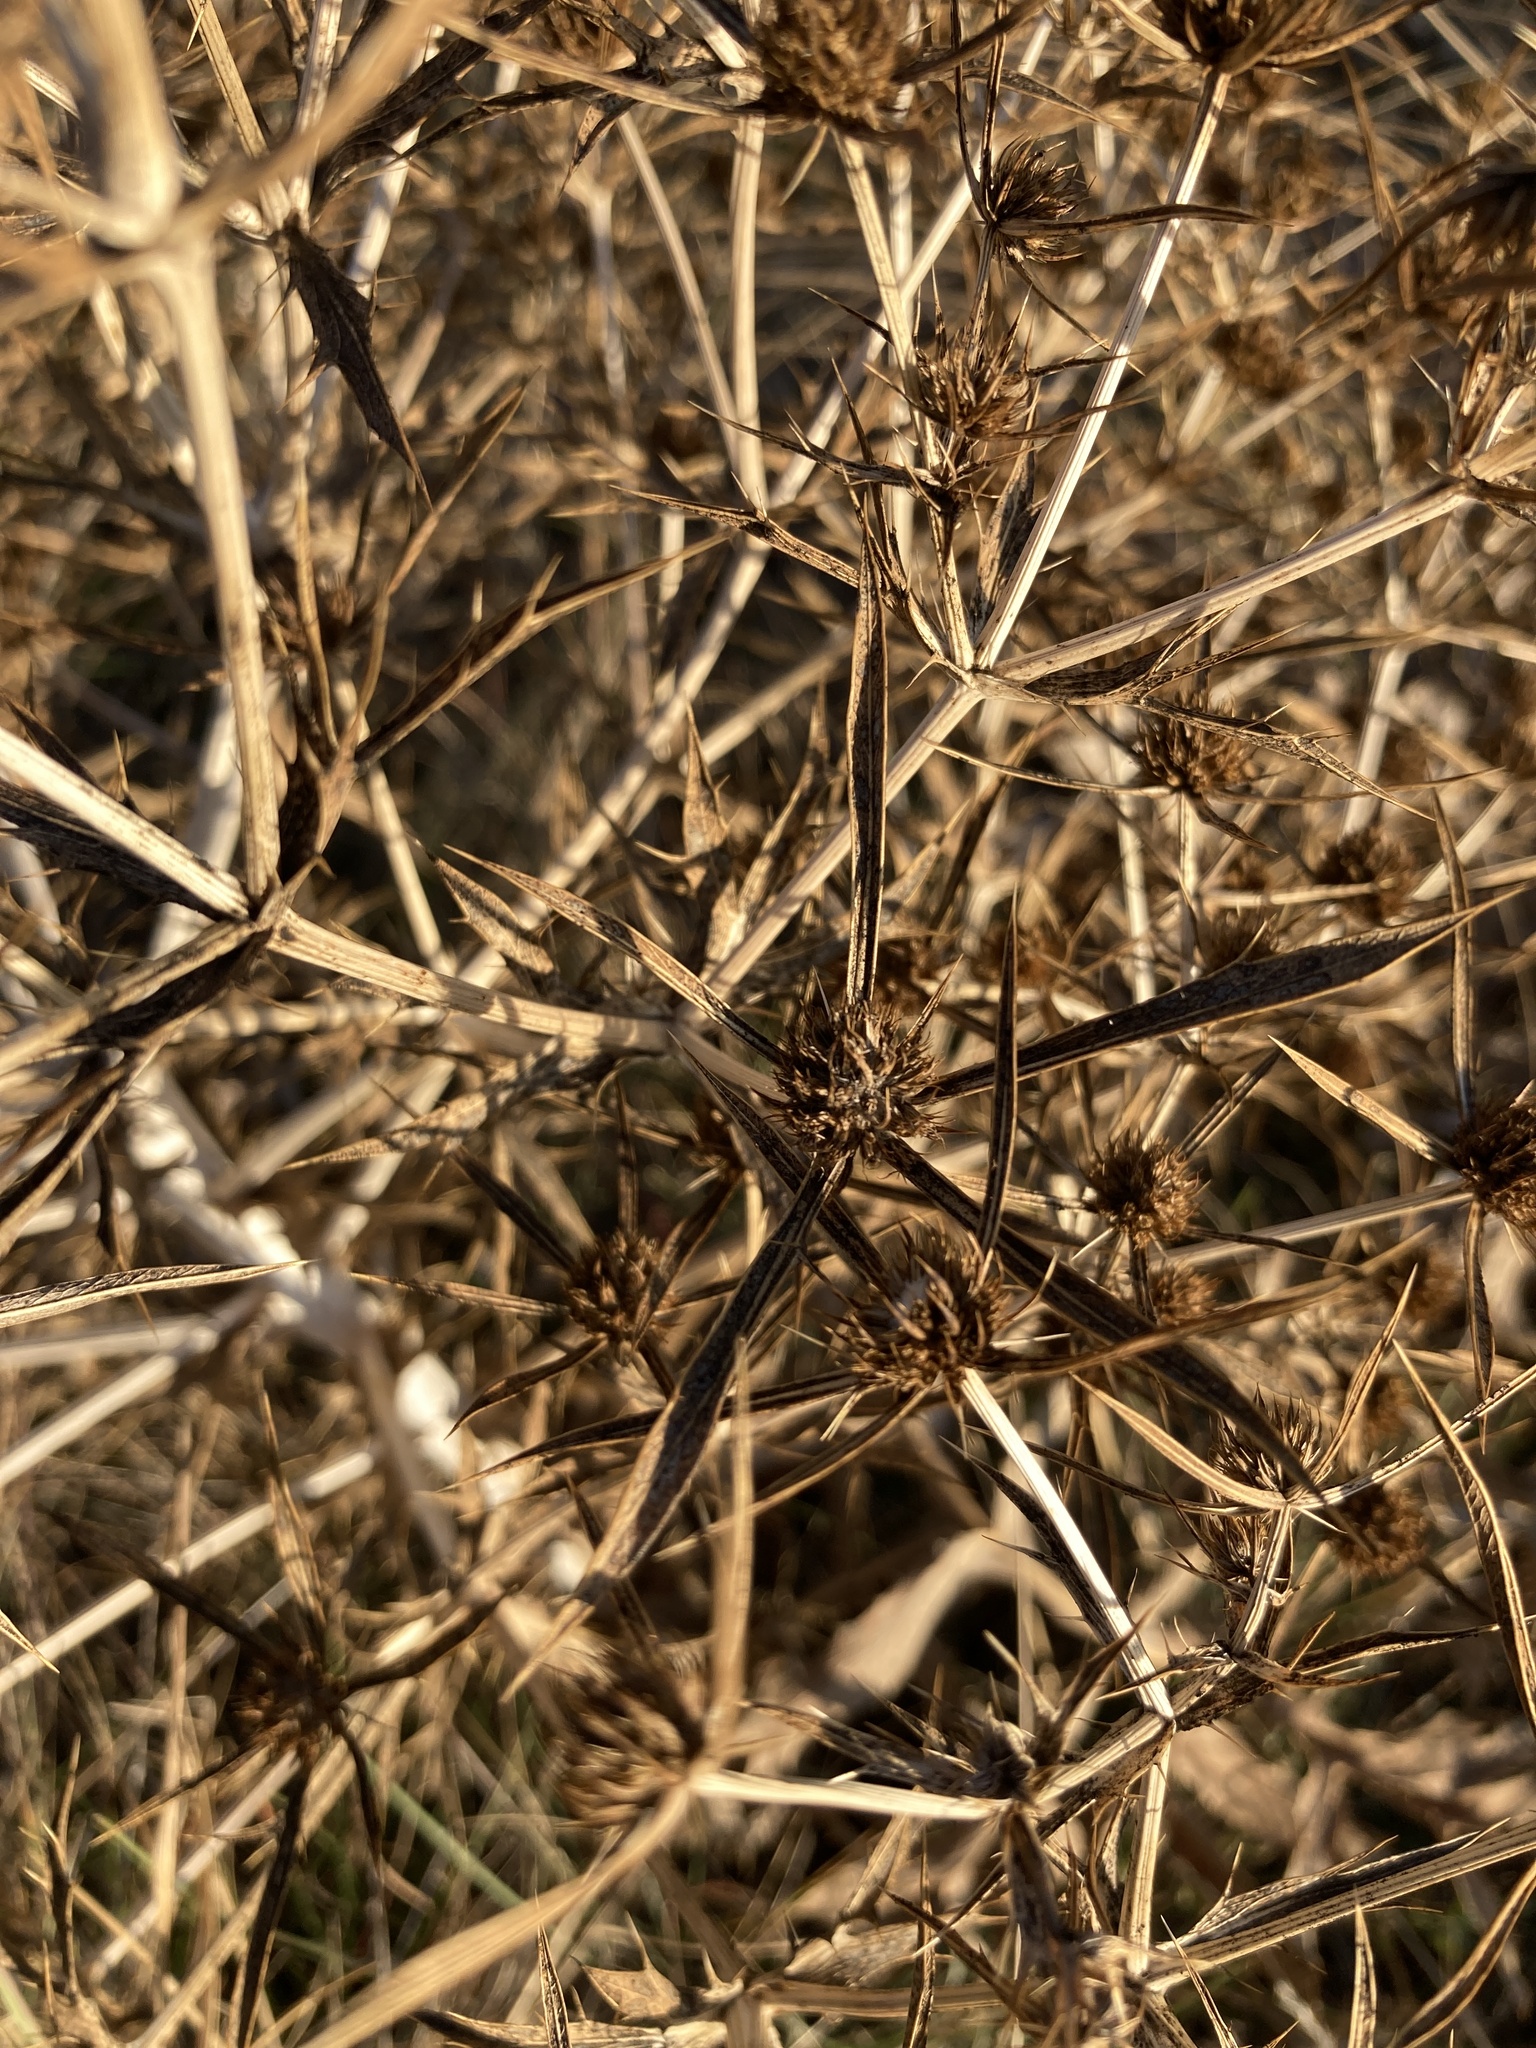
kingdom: Plantae
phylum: Tracheophyta
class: Magnoliopsida
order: Apiales
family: Apiaceae
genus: Eryngium
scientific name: Eryngium campestre
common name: Field eryngo
